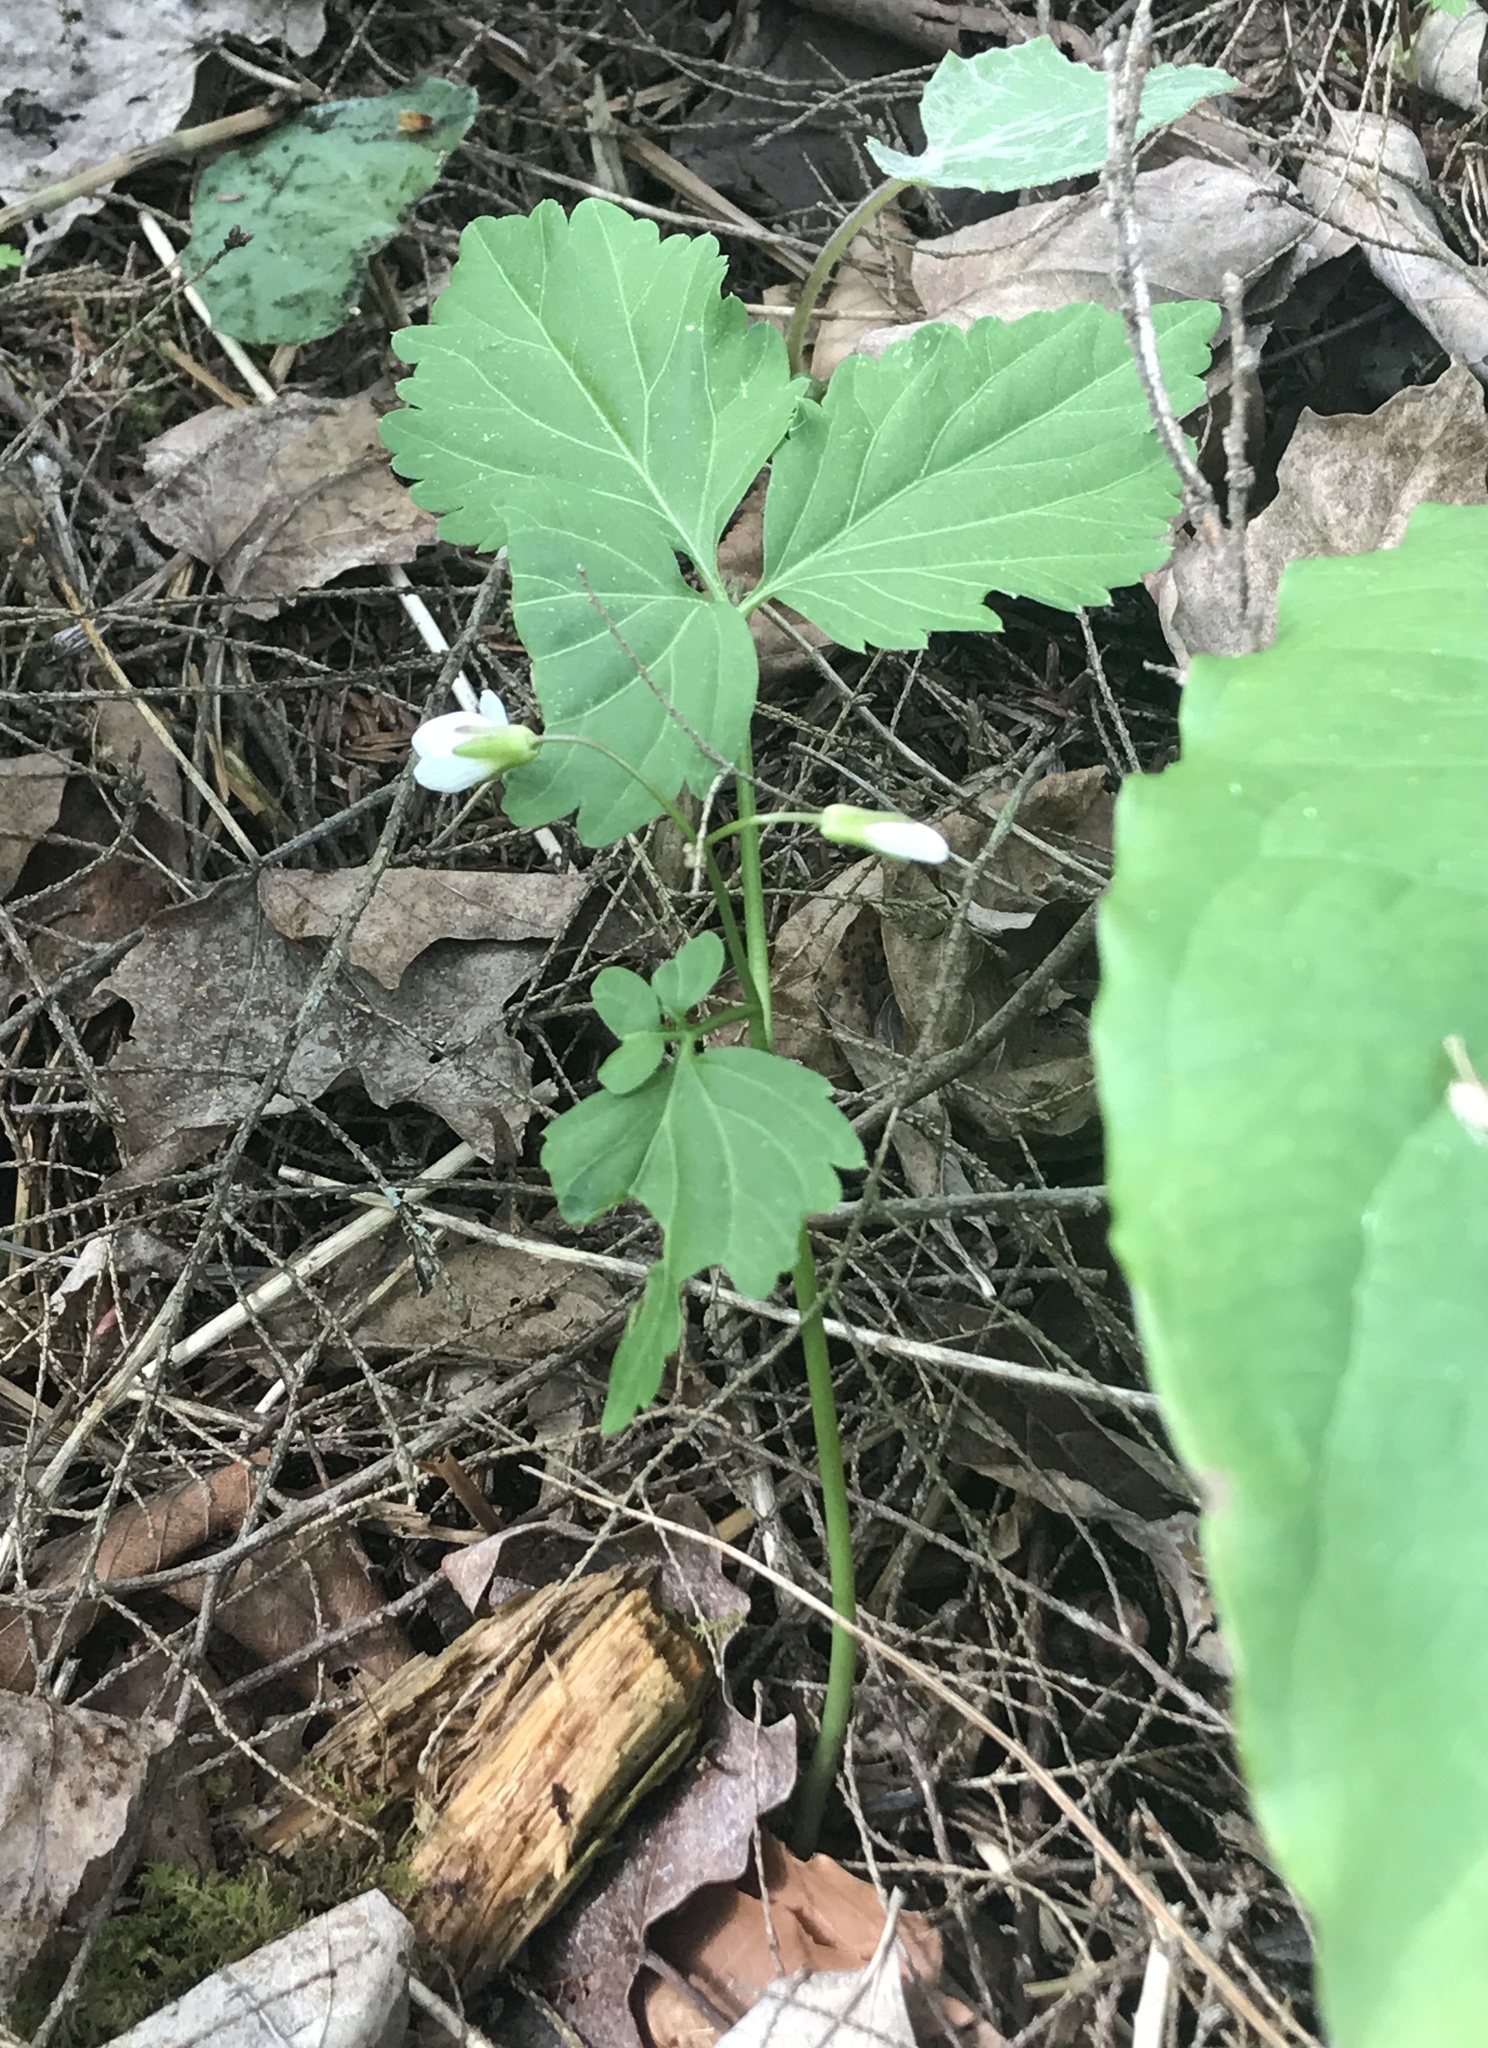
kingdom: Plantae
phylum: Tracheophyta
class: Magnoliopsida
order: Brassicales
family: Brassicaceae
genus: Cardamine
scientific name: Cardamine diphylla
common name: Broad-leaved toothwort
